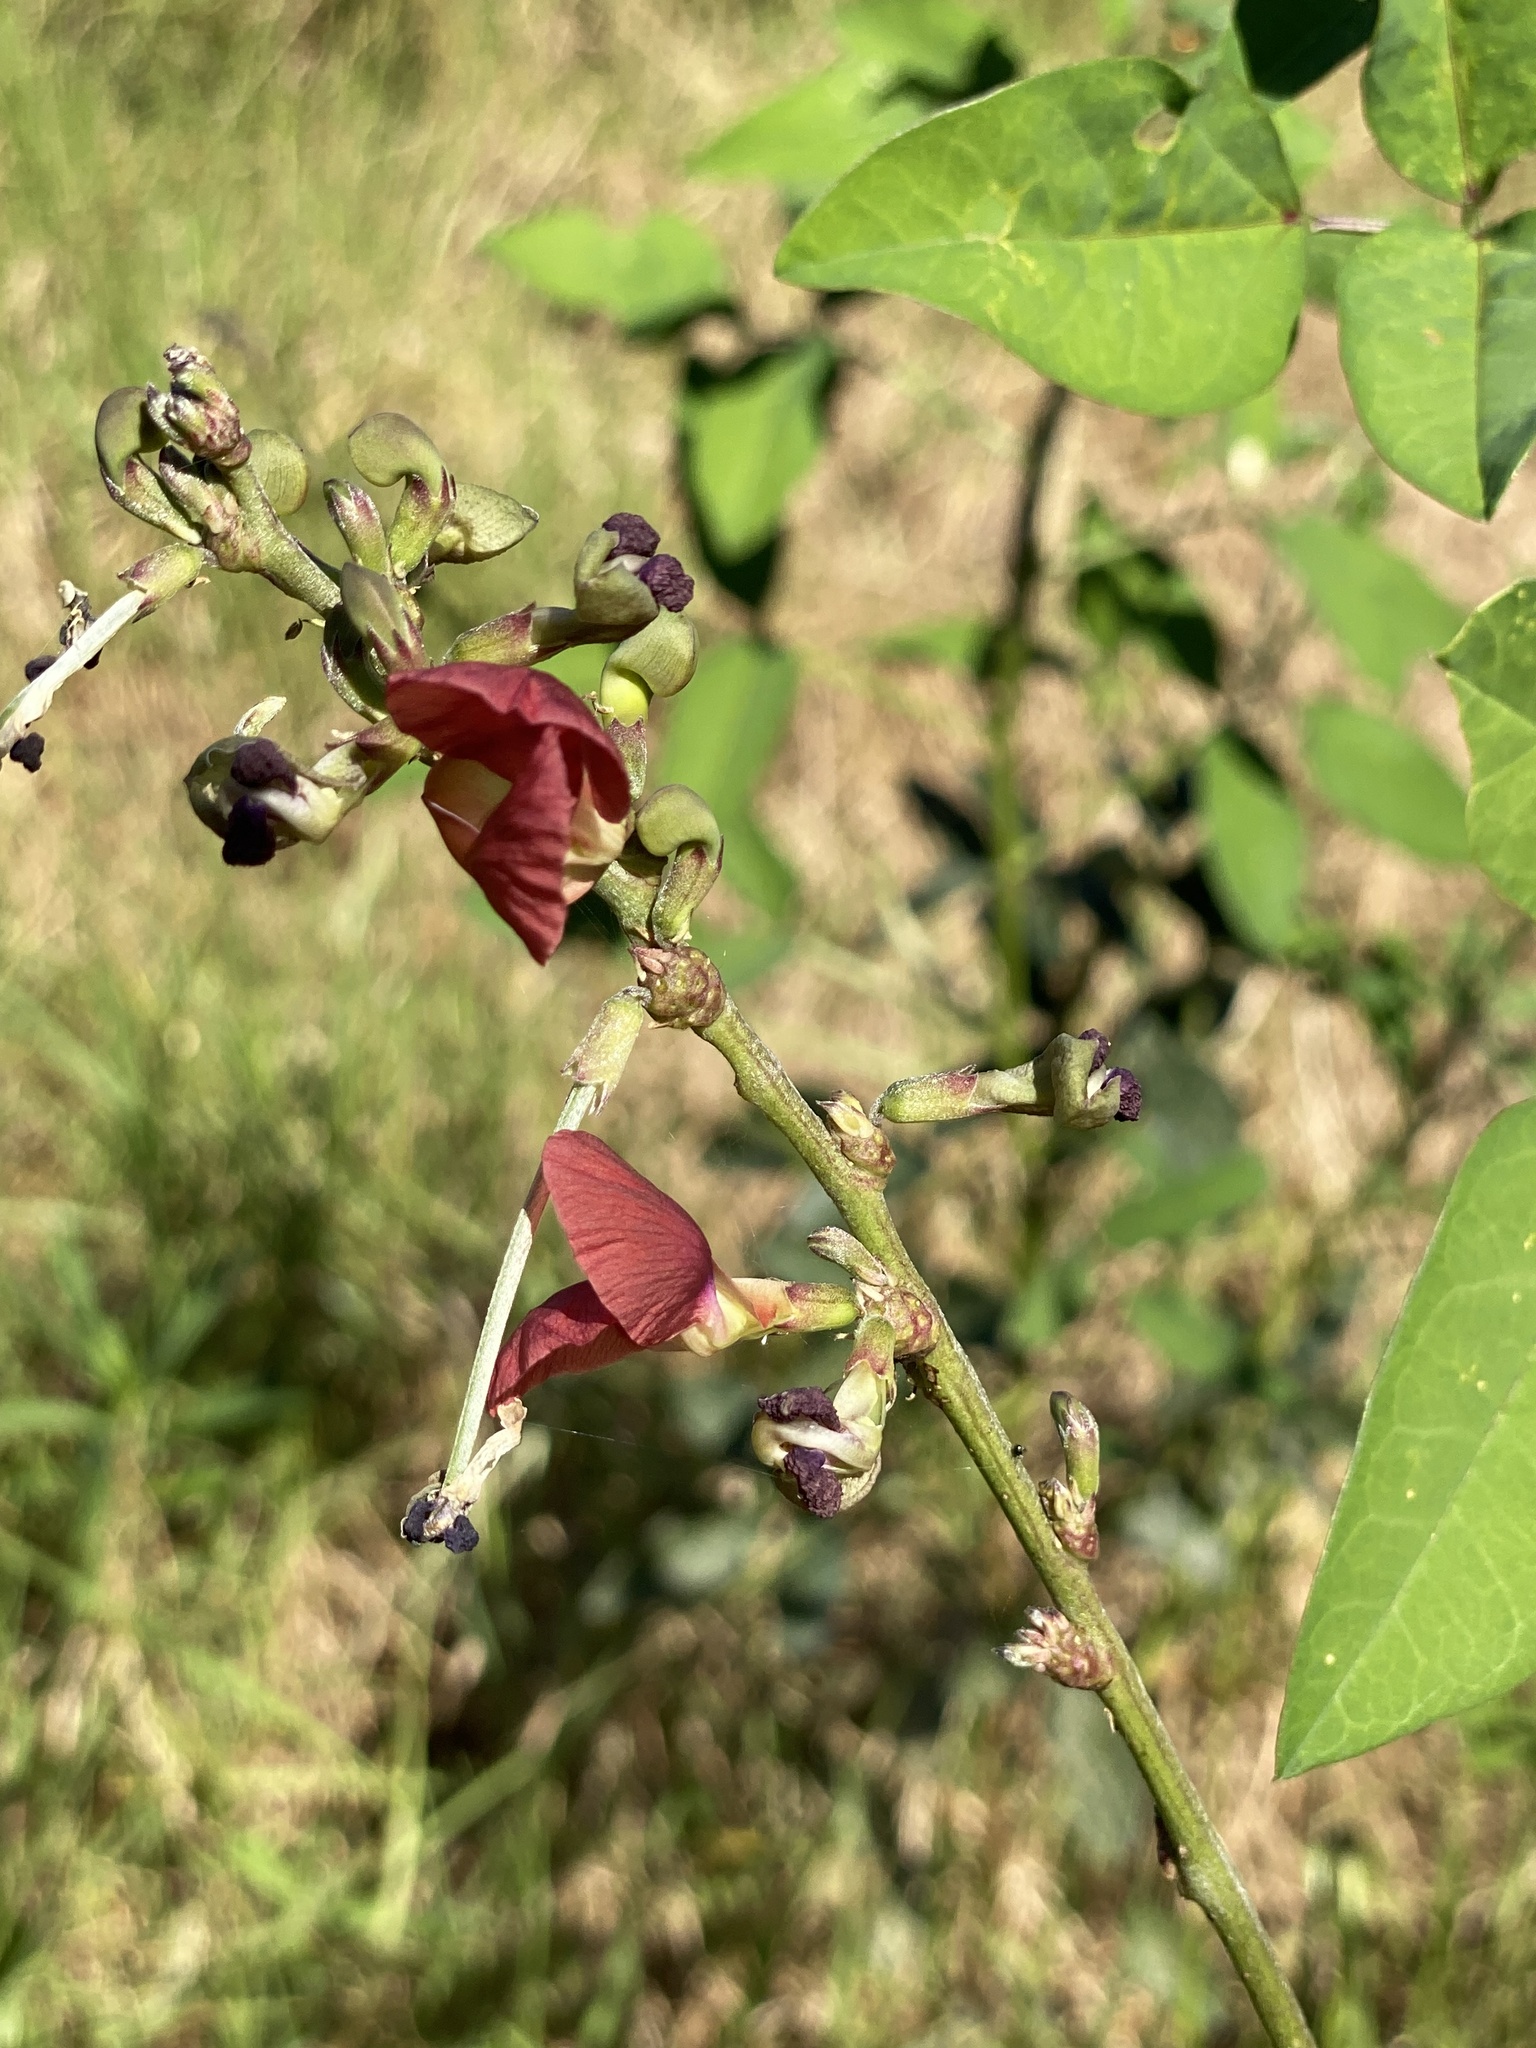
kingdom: Plantae
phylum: Tracheophyta
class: Magnoliopsida
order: Fabales
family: Fabaceae
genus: Macroptilium
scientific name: Macroptilium lathyroides
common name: Wild bushbean
